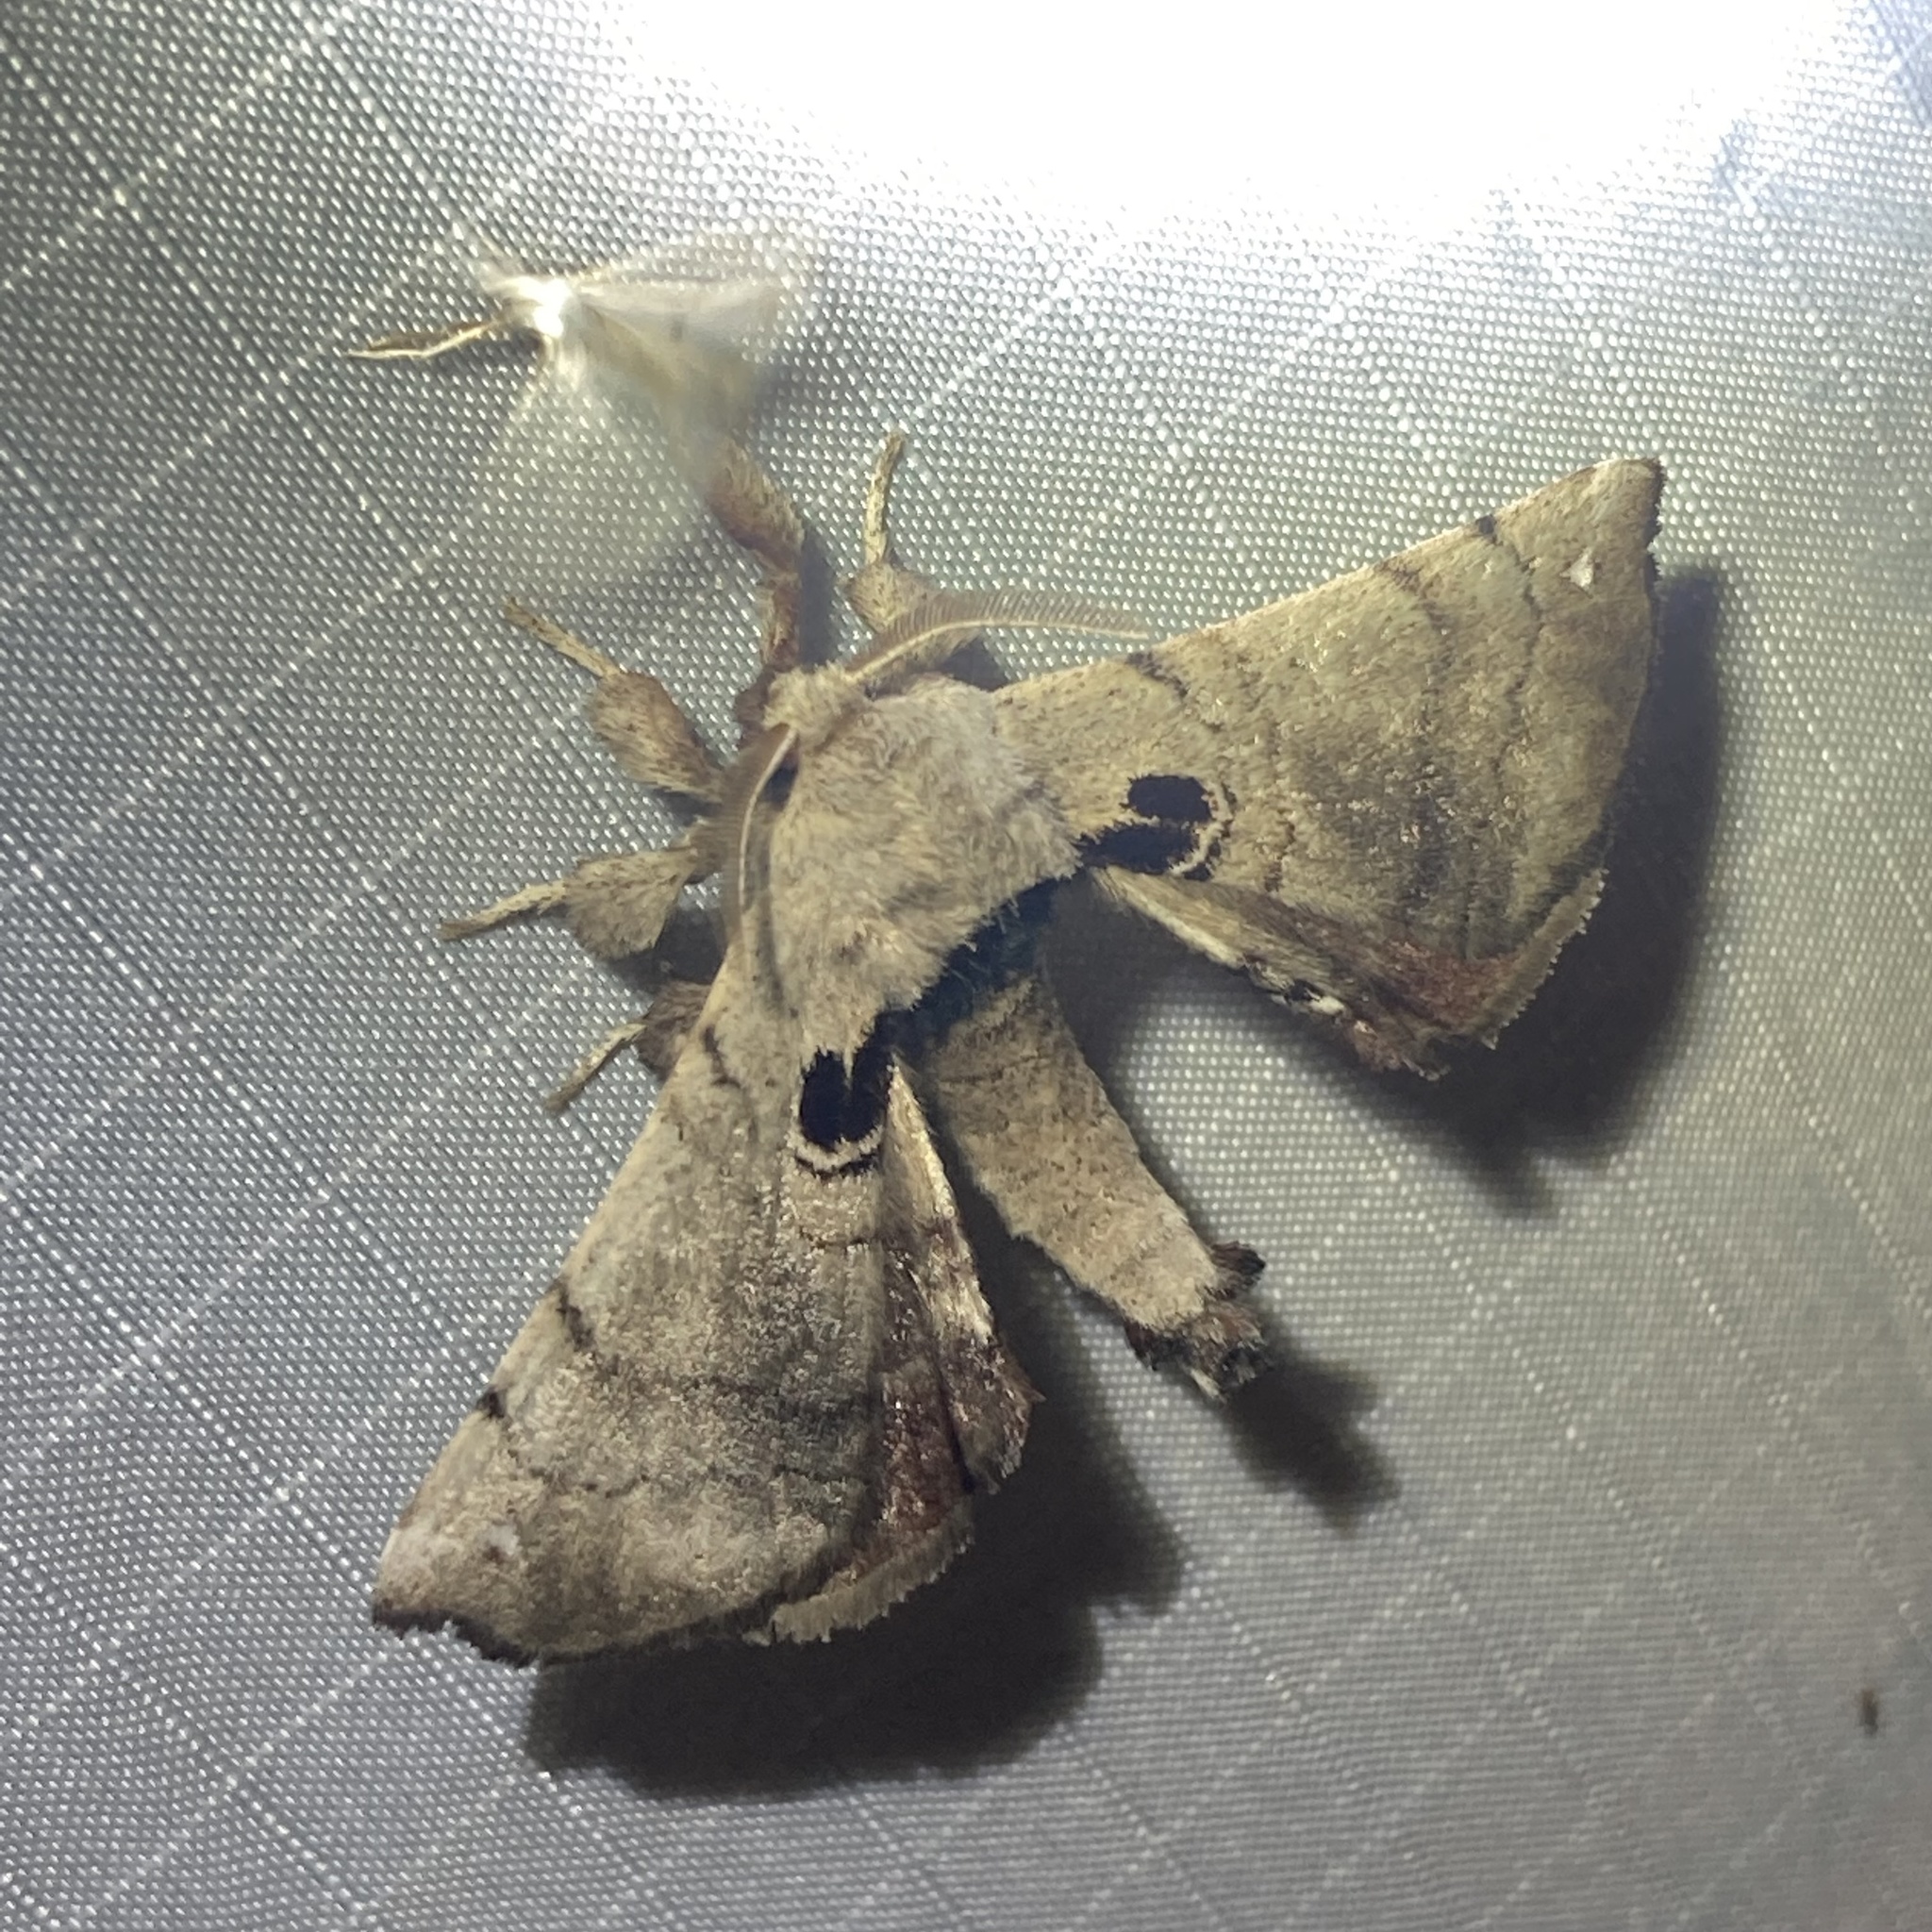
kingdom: Animalia
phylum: Arthropoda
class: Insecta
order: Lepidoptera
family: Apatelodidae
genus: Hygrochroa
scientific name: Hygrochroa Apatelodes torrefacta
